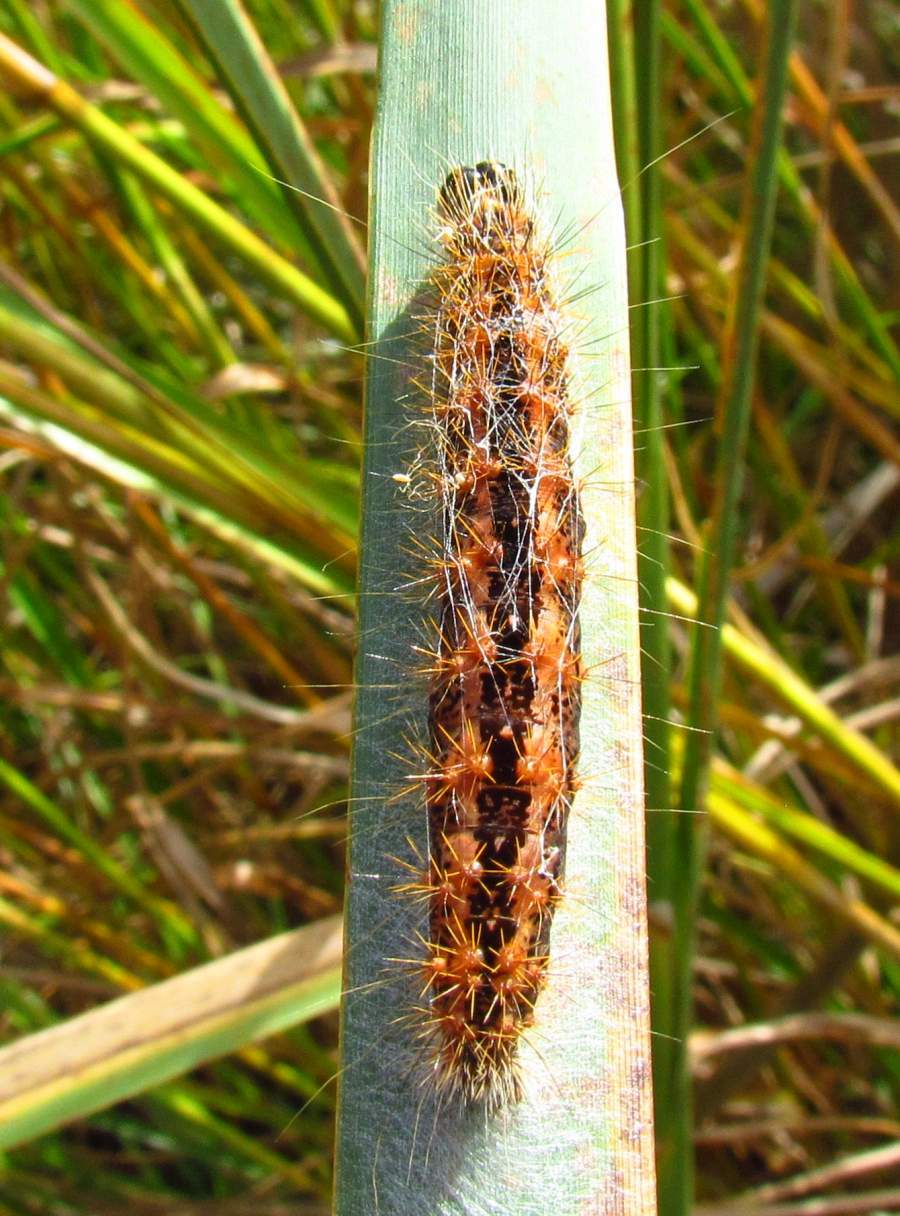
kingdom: Animalia
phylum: Arthropoda
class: Insecta
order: Lepidoptera
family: Noctuidae
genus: Acronicta
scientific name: Acronicta insularis
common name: Henry's marsh moth
